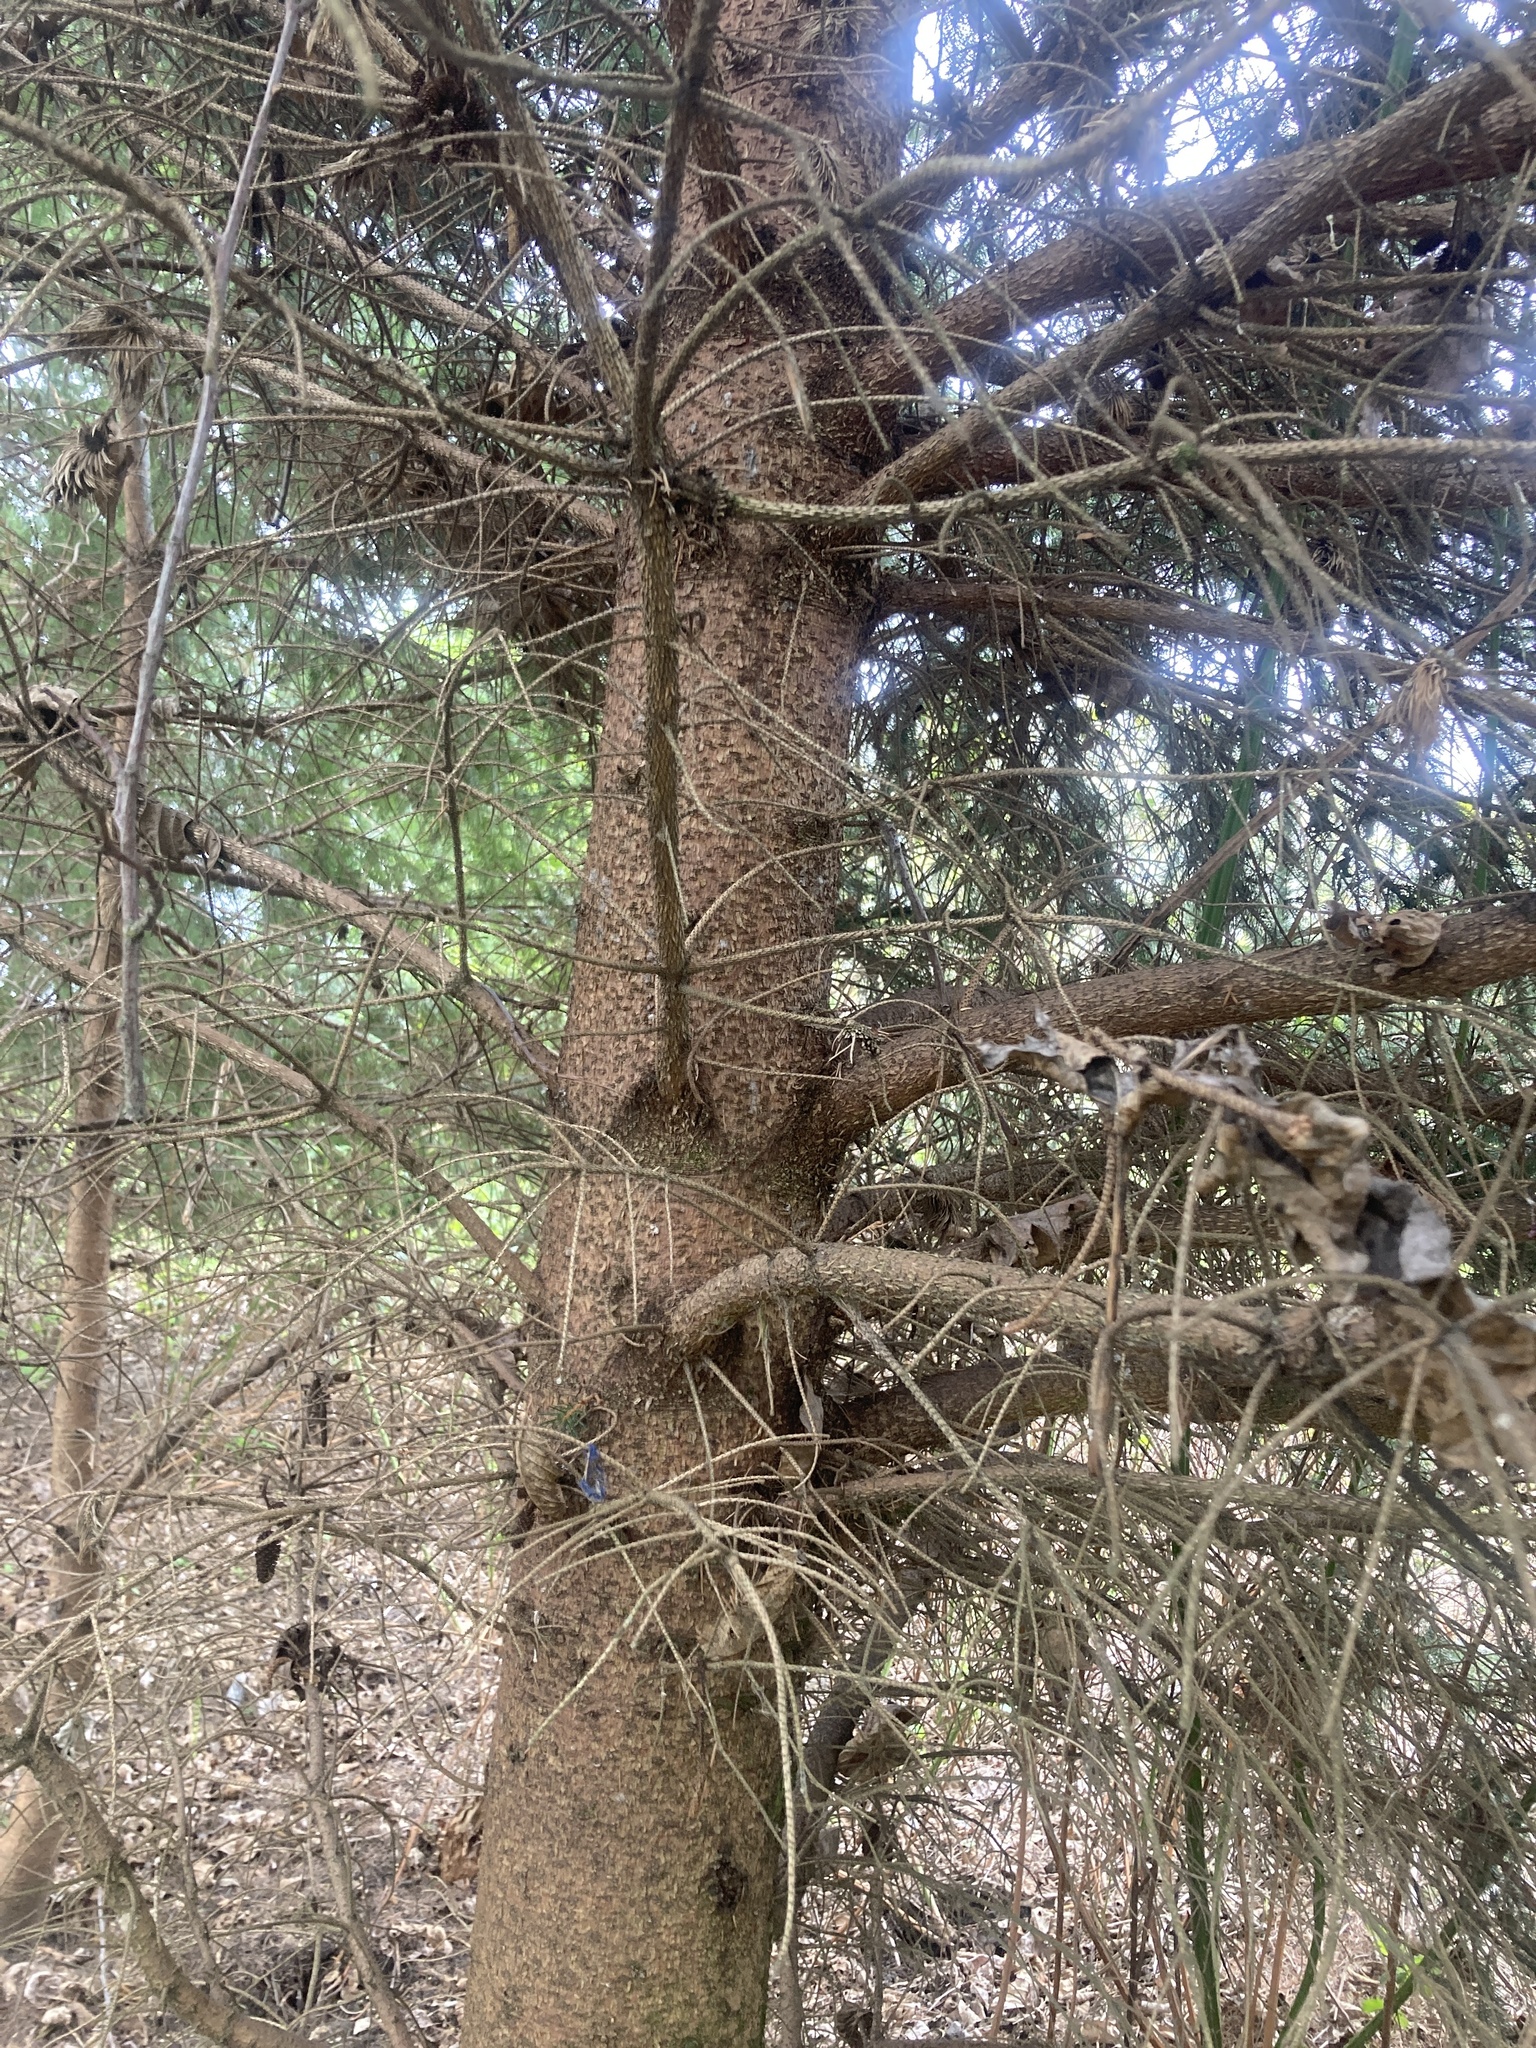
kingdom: Plantae
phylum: Tracheophyta
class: Pinopsida
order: Pinales
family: Pinaceae
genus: Picea
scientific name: Picea sitchensis
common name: Sitka spruce
